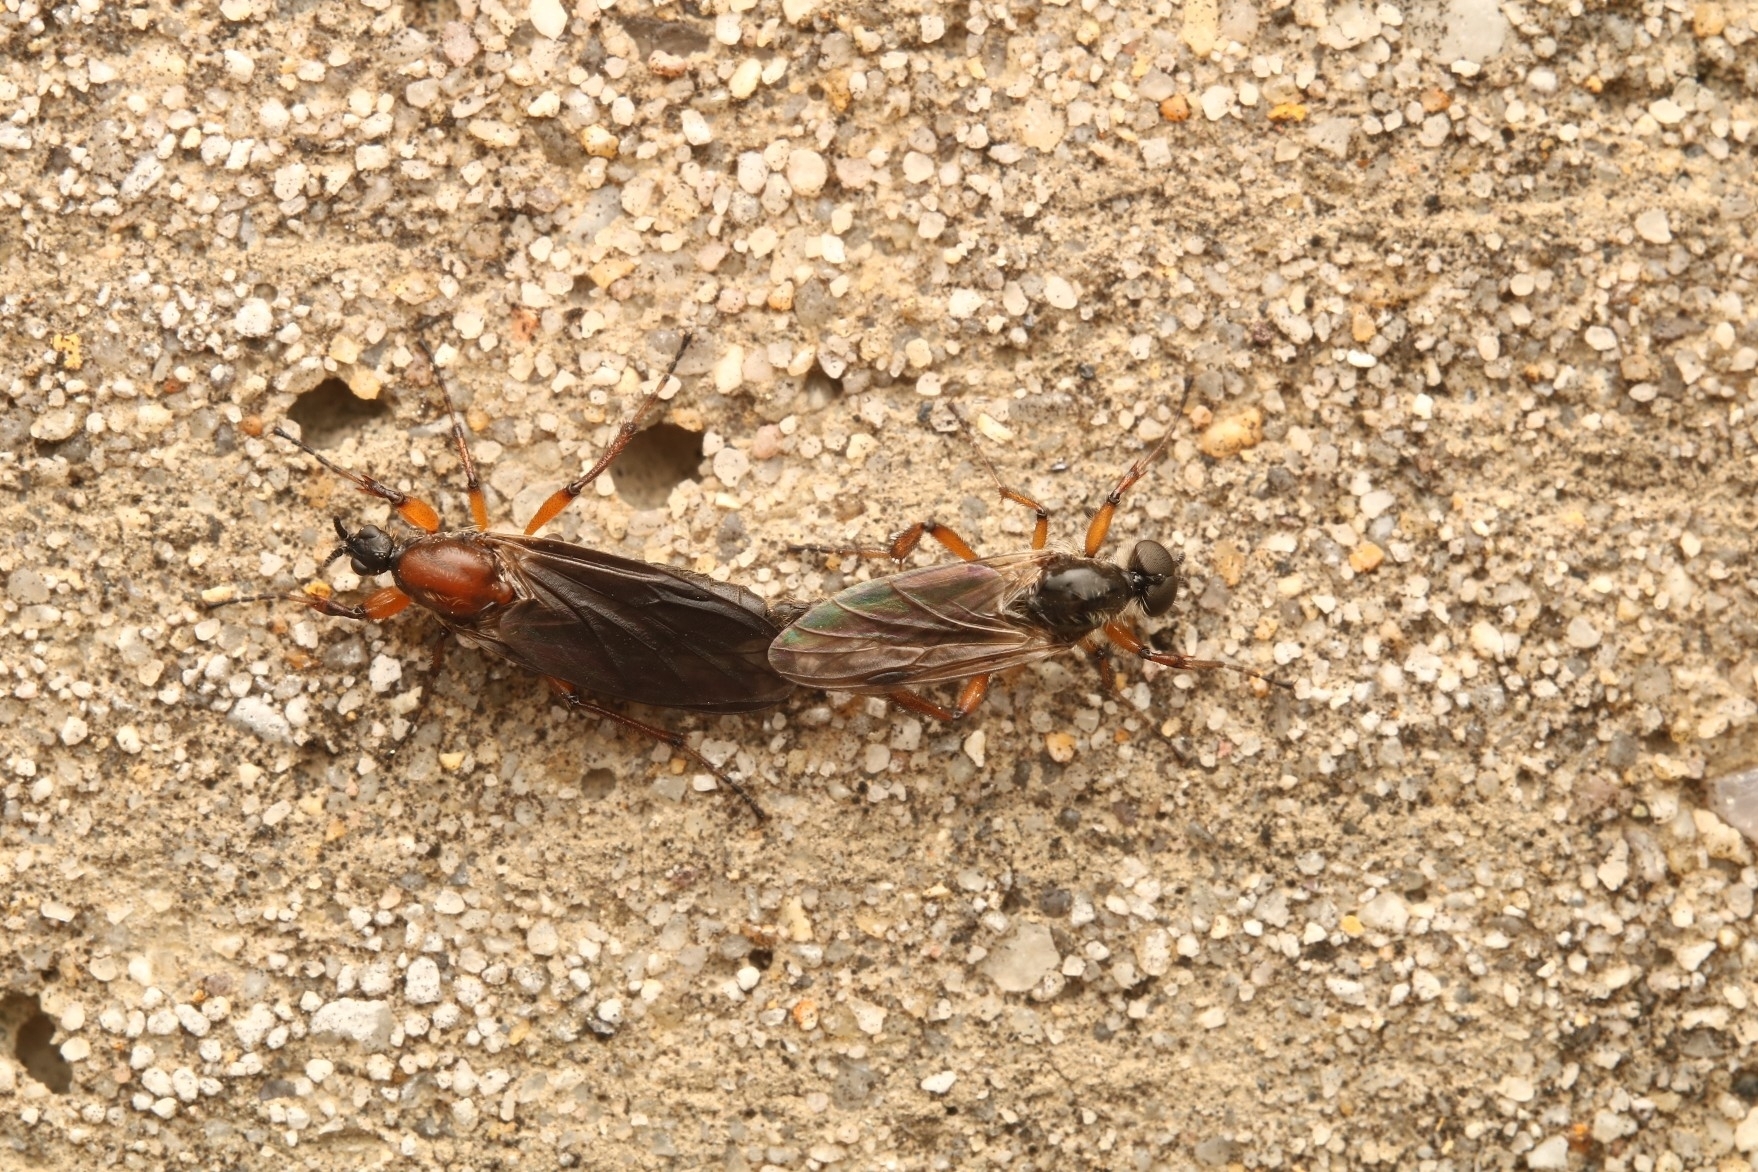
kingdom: Animalia
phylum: Arthropoda
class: Insecta
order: Diptera
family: Bibionidae
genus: Bibio
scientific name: Bibio articulatus
